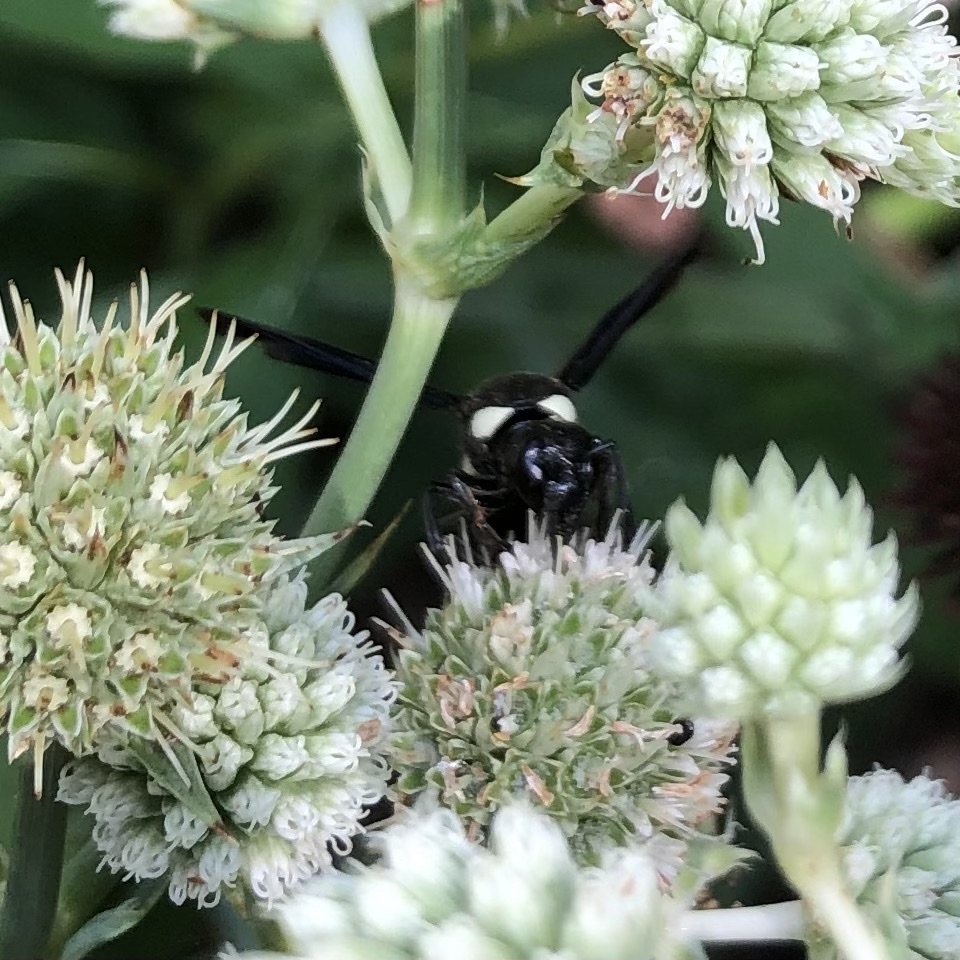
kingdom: Animalia
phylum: Arthropoda
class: Insecta
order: Hymenoptera
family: Eumenidae
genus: Monobia
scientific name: Monobia quadridens
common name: Four-toothed mason wasp
